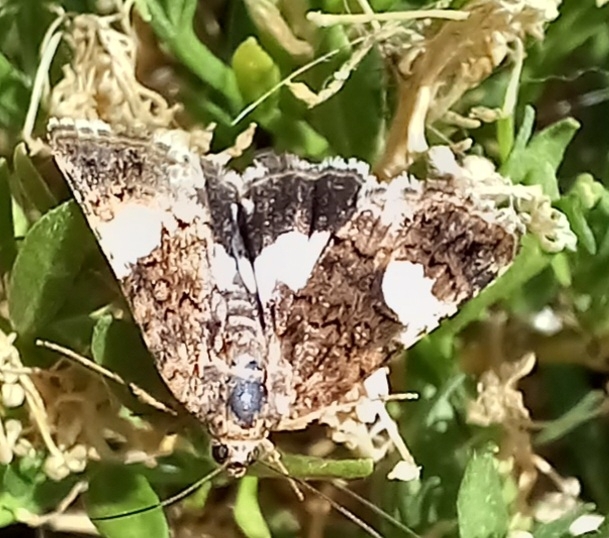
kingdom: Animalia
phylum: Arthropoda
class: Insecta
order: Lepidoptera
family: Erebidae
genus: Tyta
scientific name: Tyta luctuosa
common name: Four-spotted
